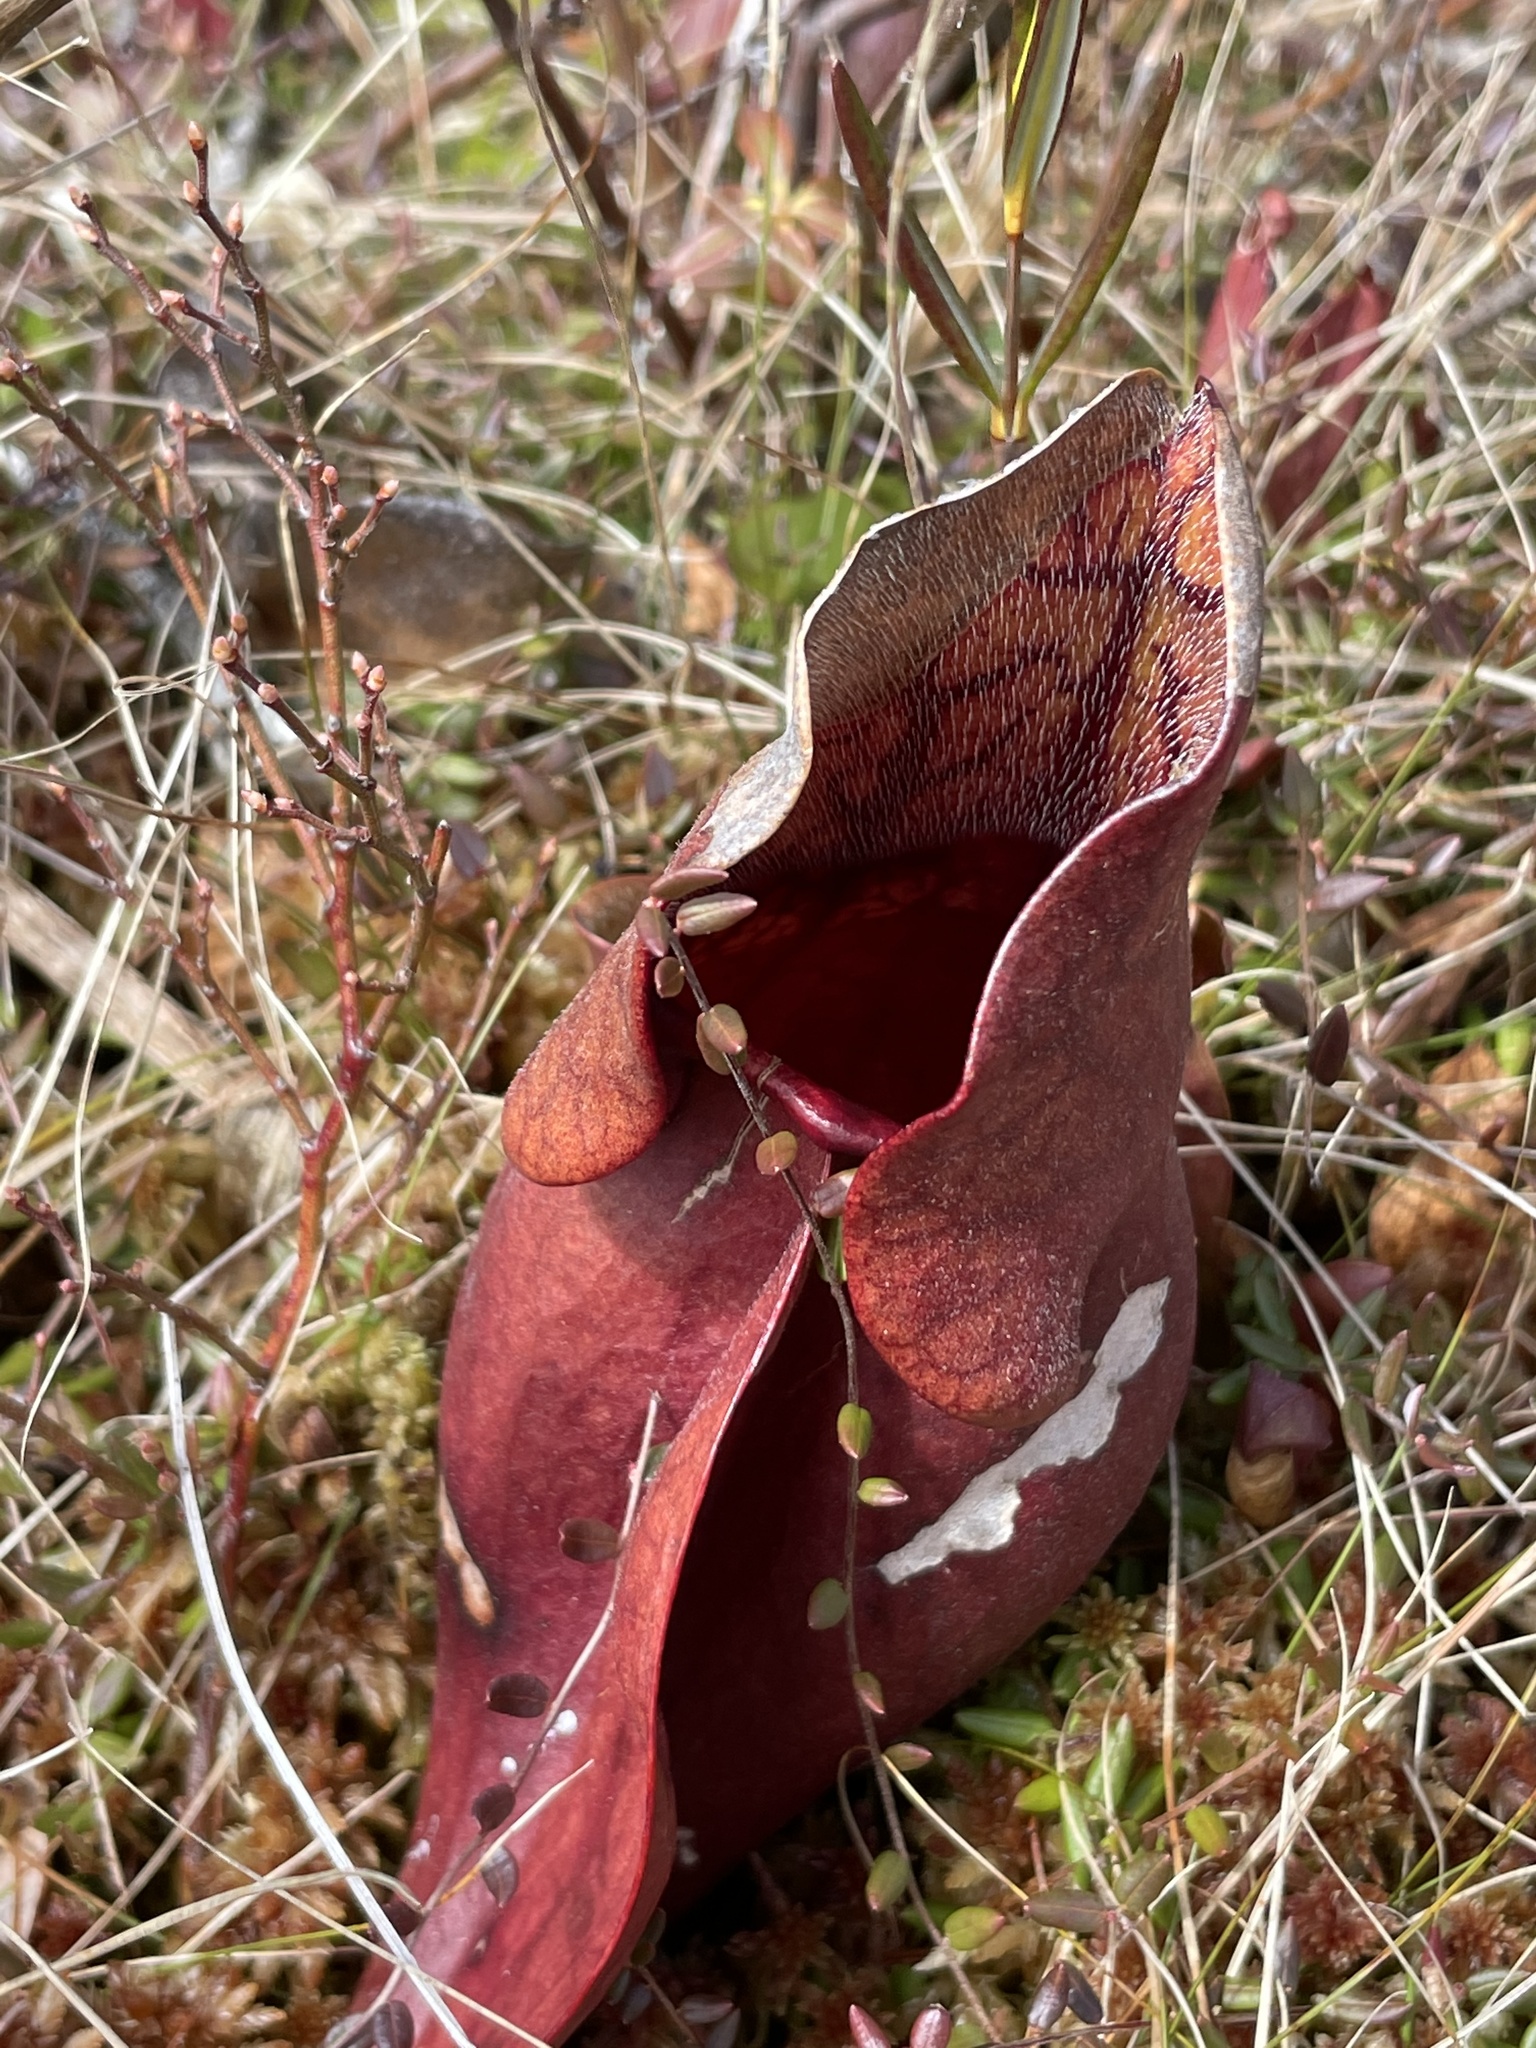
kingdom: Plantae
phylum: Tracheophyta
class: Magnoliopsida
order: Ericales
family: Sarraceniaceae
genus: Sarracenia
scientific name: Sarracenia purpurea
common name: Pitcherplant
